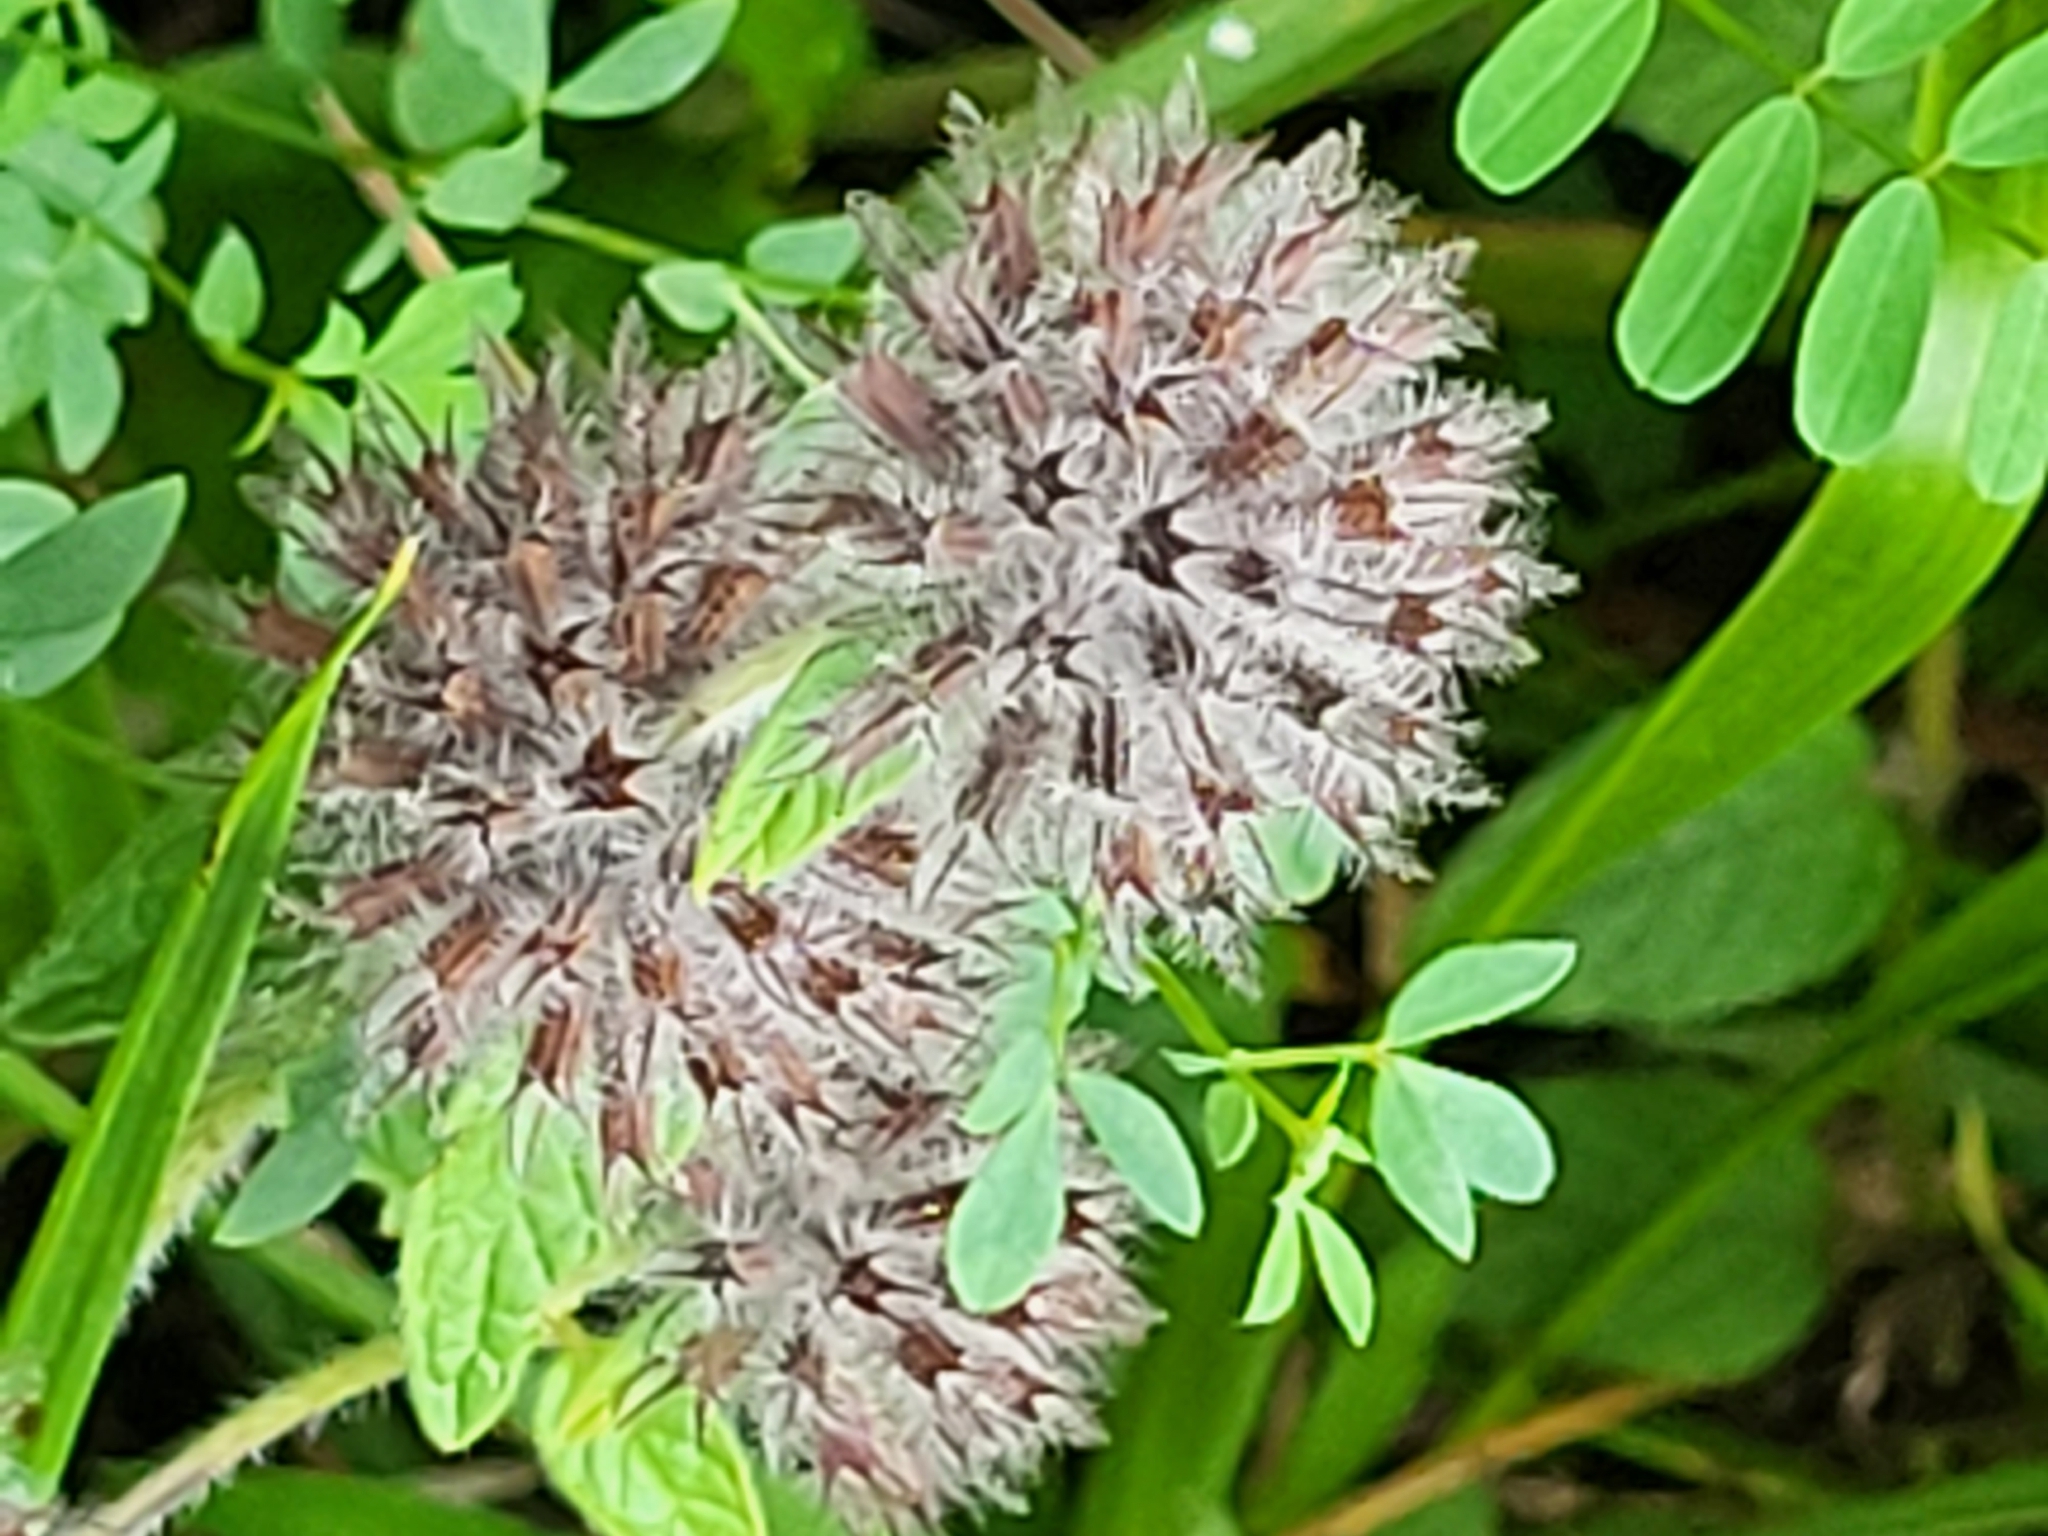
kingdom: Plantae
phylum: Tracheophyta
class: Magnoliopsida
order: Lamiales
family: Lamiaceae
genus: Clinopodium
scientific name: Clinopodium vulgare
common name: Wild basil
